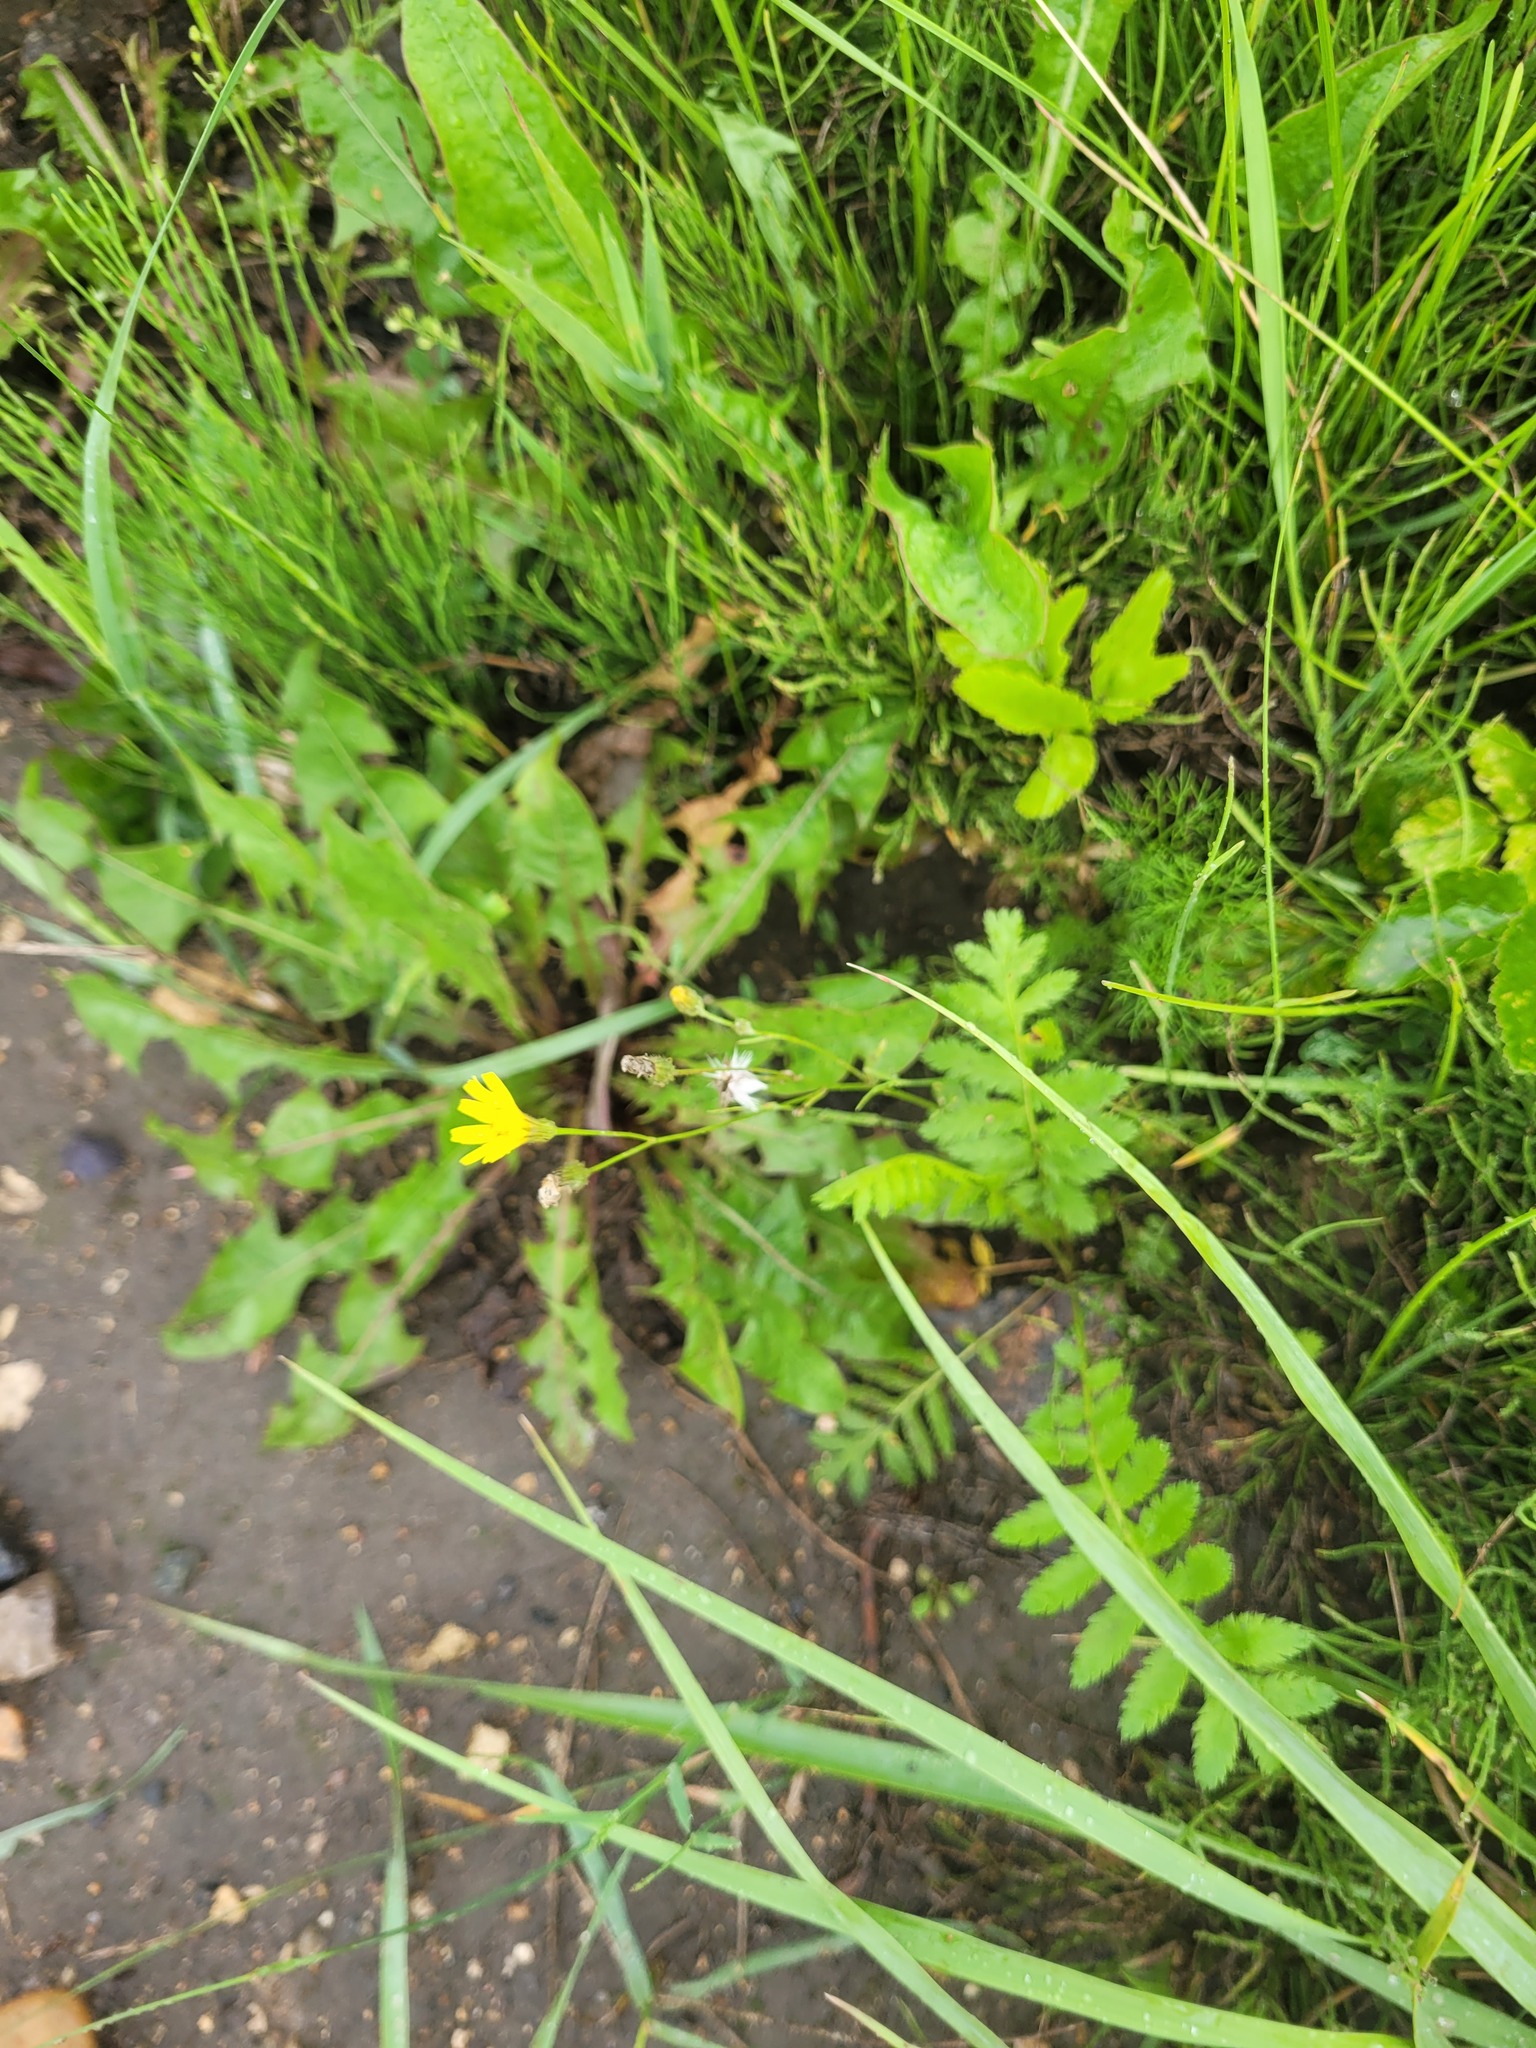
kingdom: Plantae
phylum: Tracheophyta
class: Magnoliopsida
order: Asterales
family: Asteraceae
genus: Crepis
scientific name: Crepis tectorum
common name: Narrow-leaved hawk's-beard
